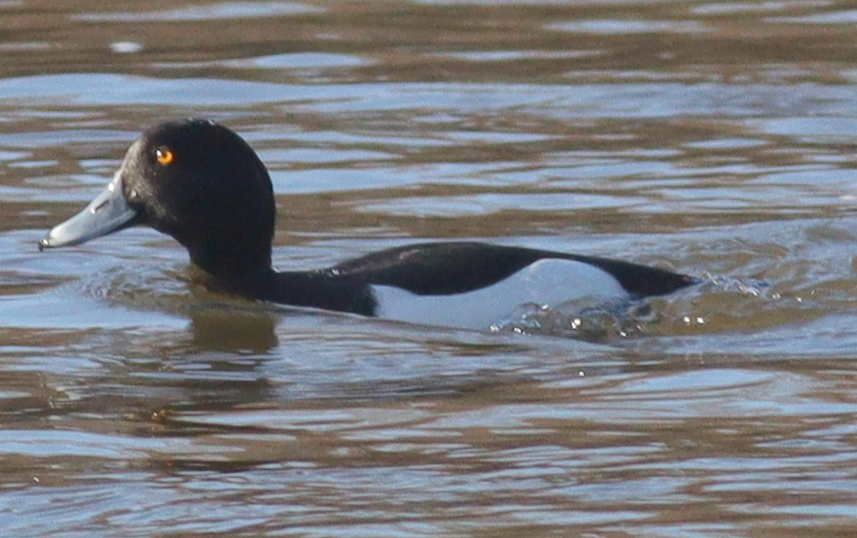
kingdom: Animalia
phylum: Chordata
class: Aves
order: Anseriformes
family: Anatidae
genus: Aythya
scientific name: Aythya fuligula
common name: Tufted duck
